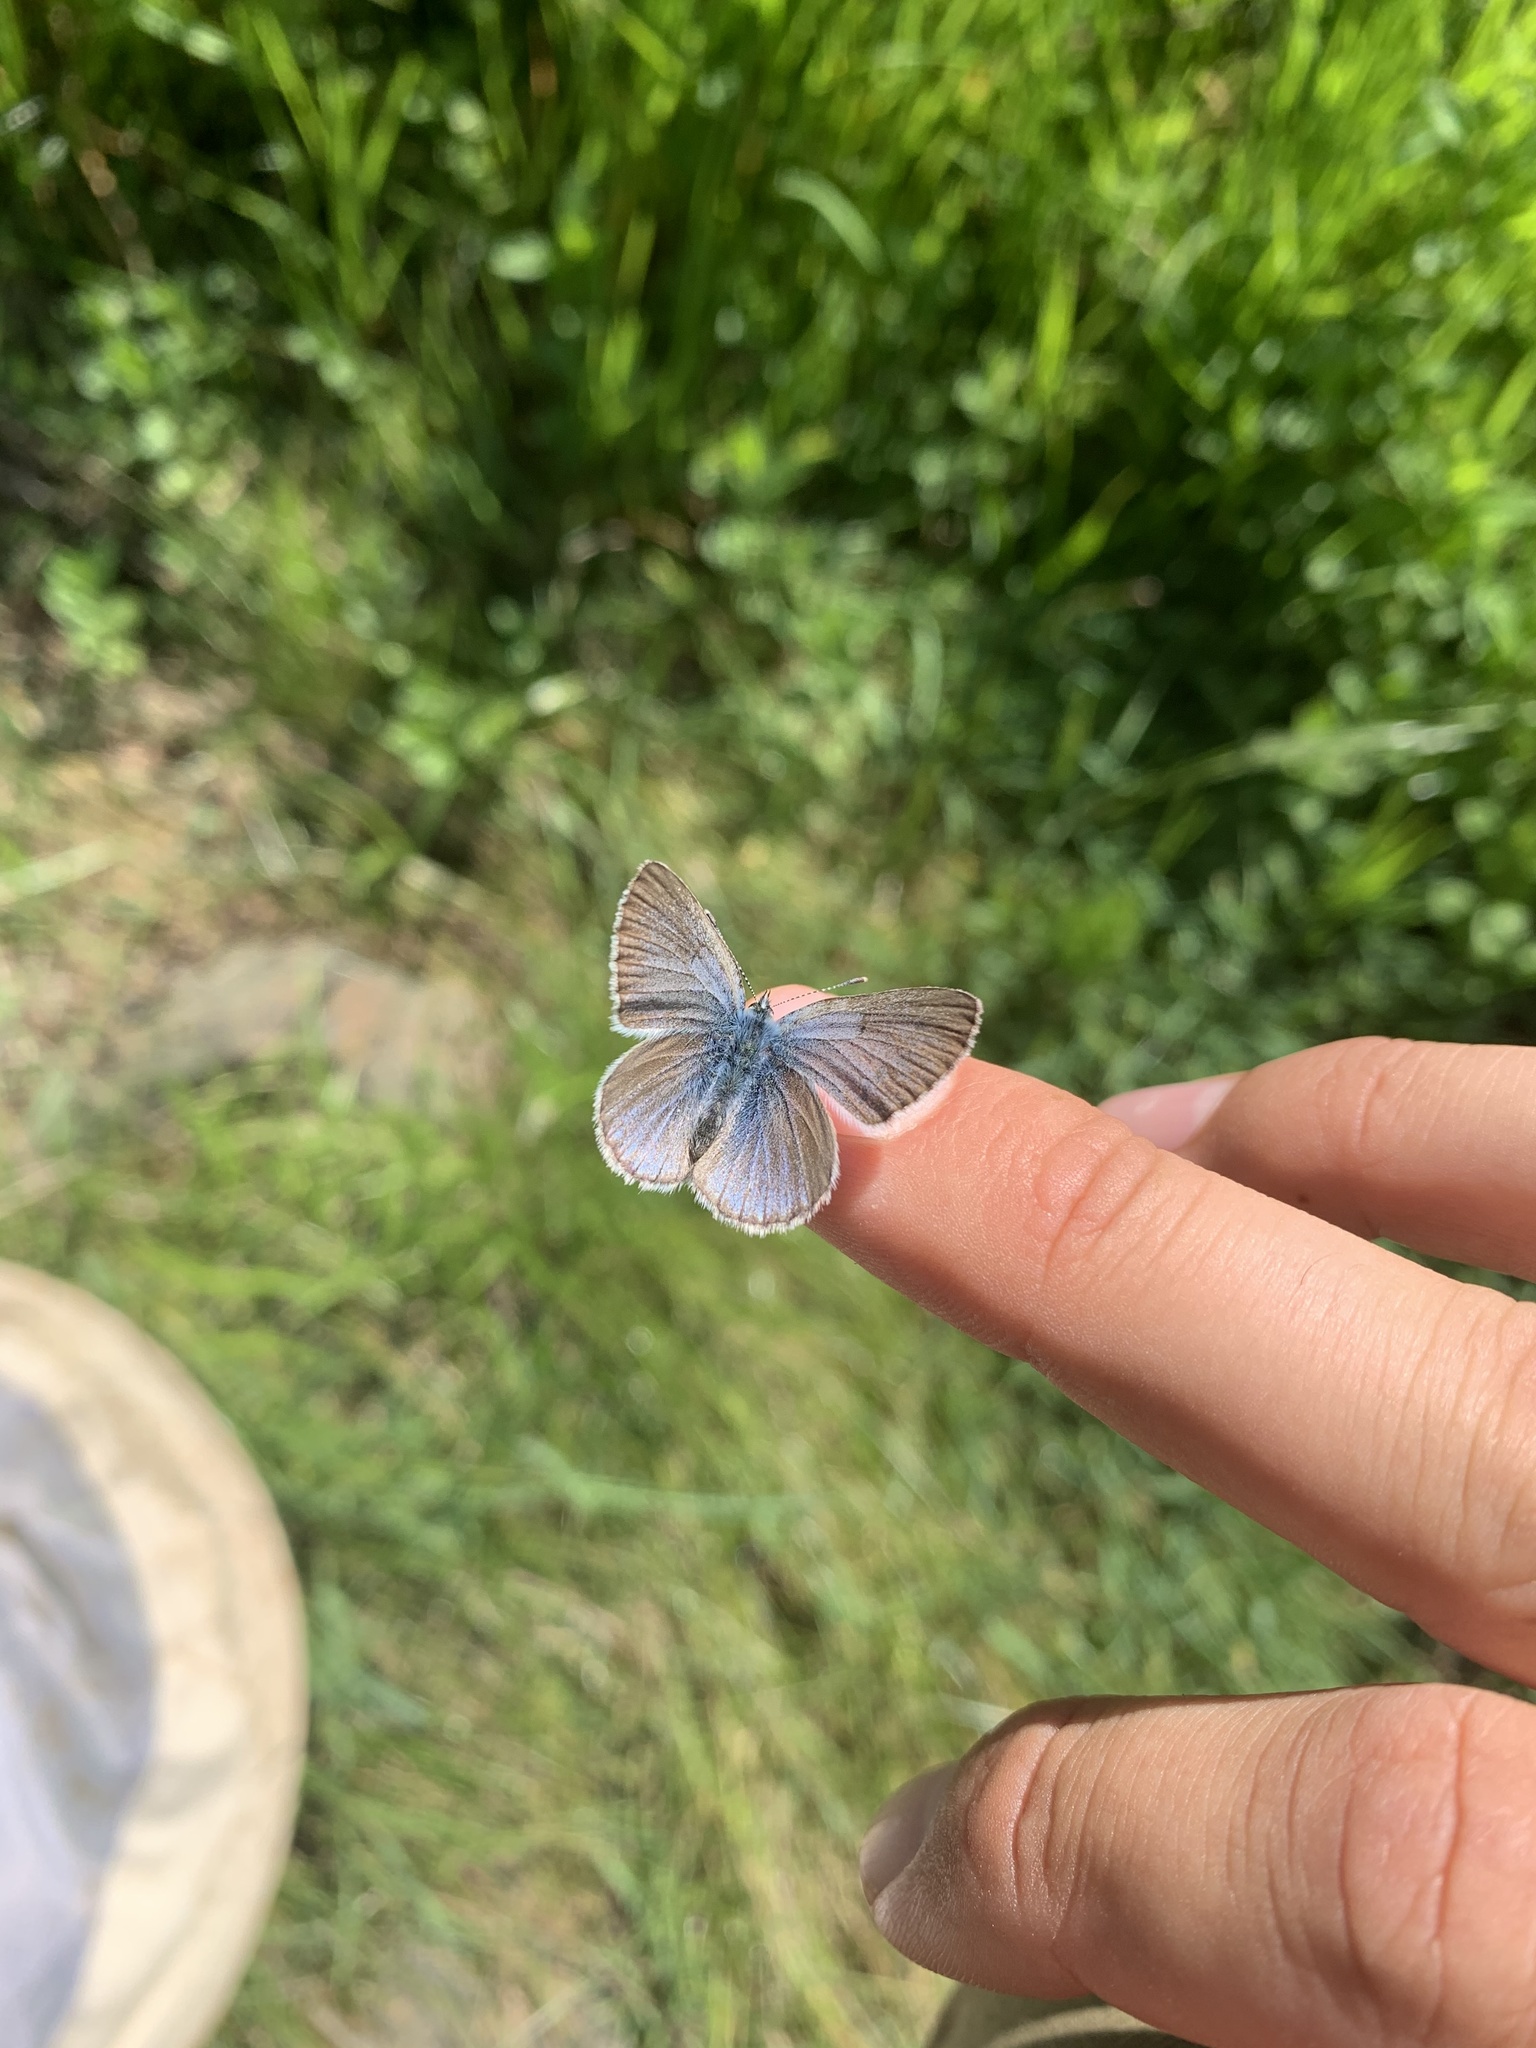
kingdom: Animalia
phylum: Arthropoda
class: Insecta
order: Lepidoptera
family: Lycaenidae
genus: Glaucopsyche
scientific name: Glaucopsyche lygdamus
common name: Silvery blue
